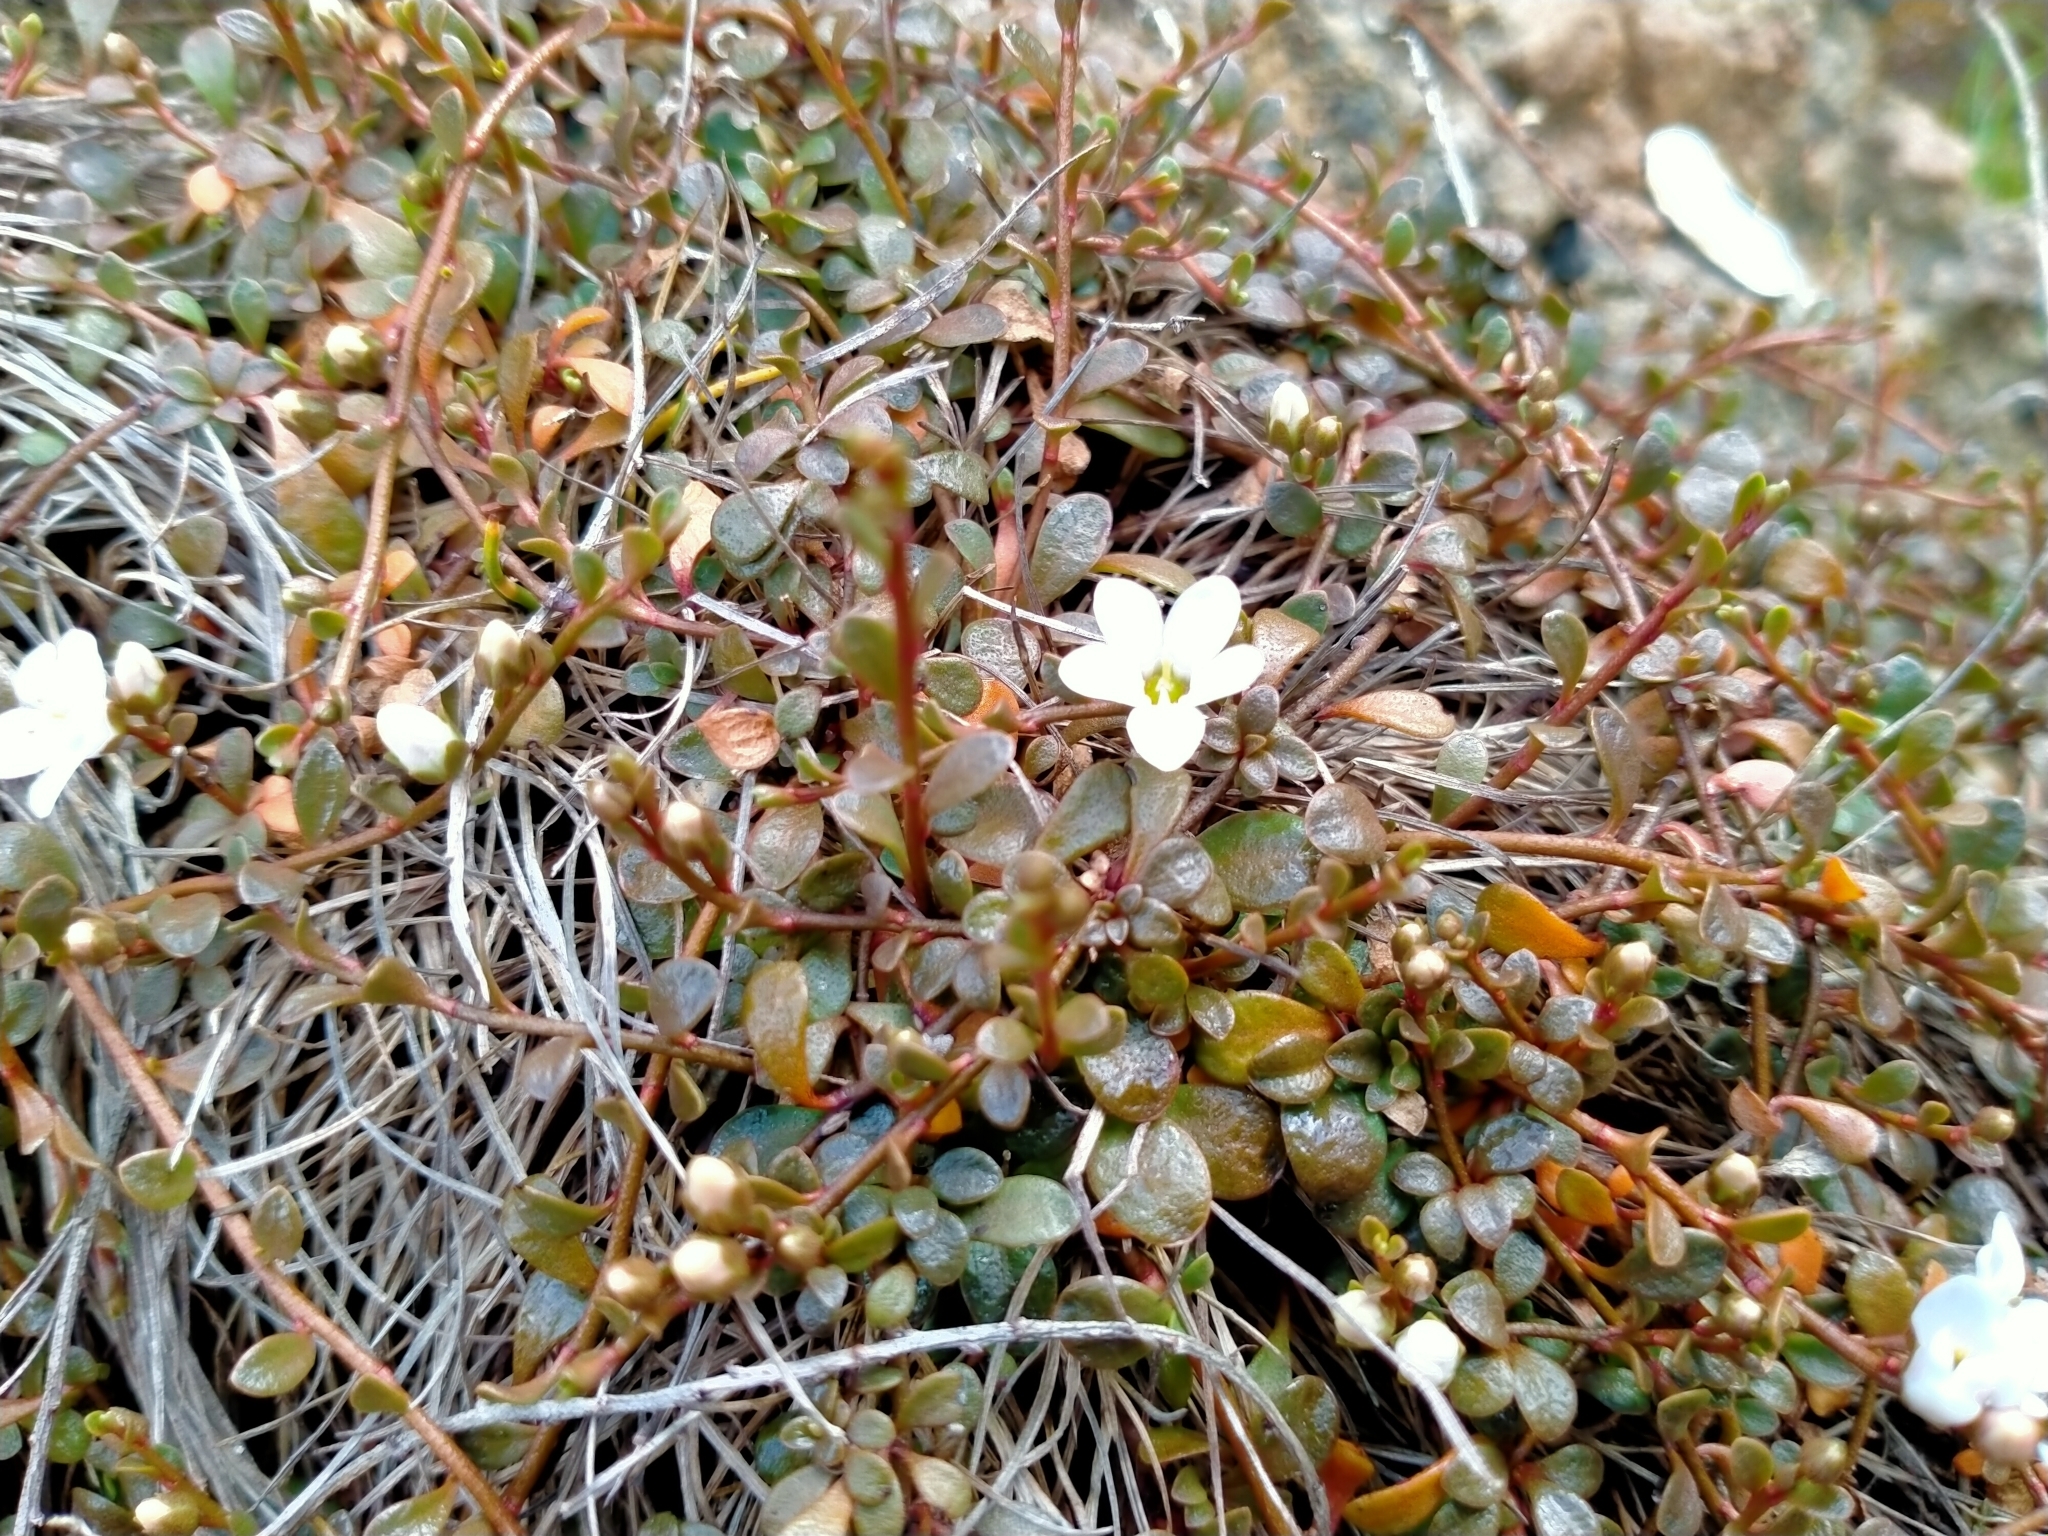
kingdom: Plantae
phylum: Tracheophyta
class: Magnoliopsida
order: Ericales
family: Primulaceae
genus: Samolus
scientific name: Samolus repens
